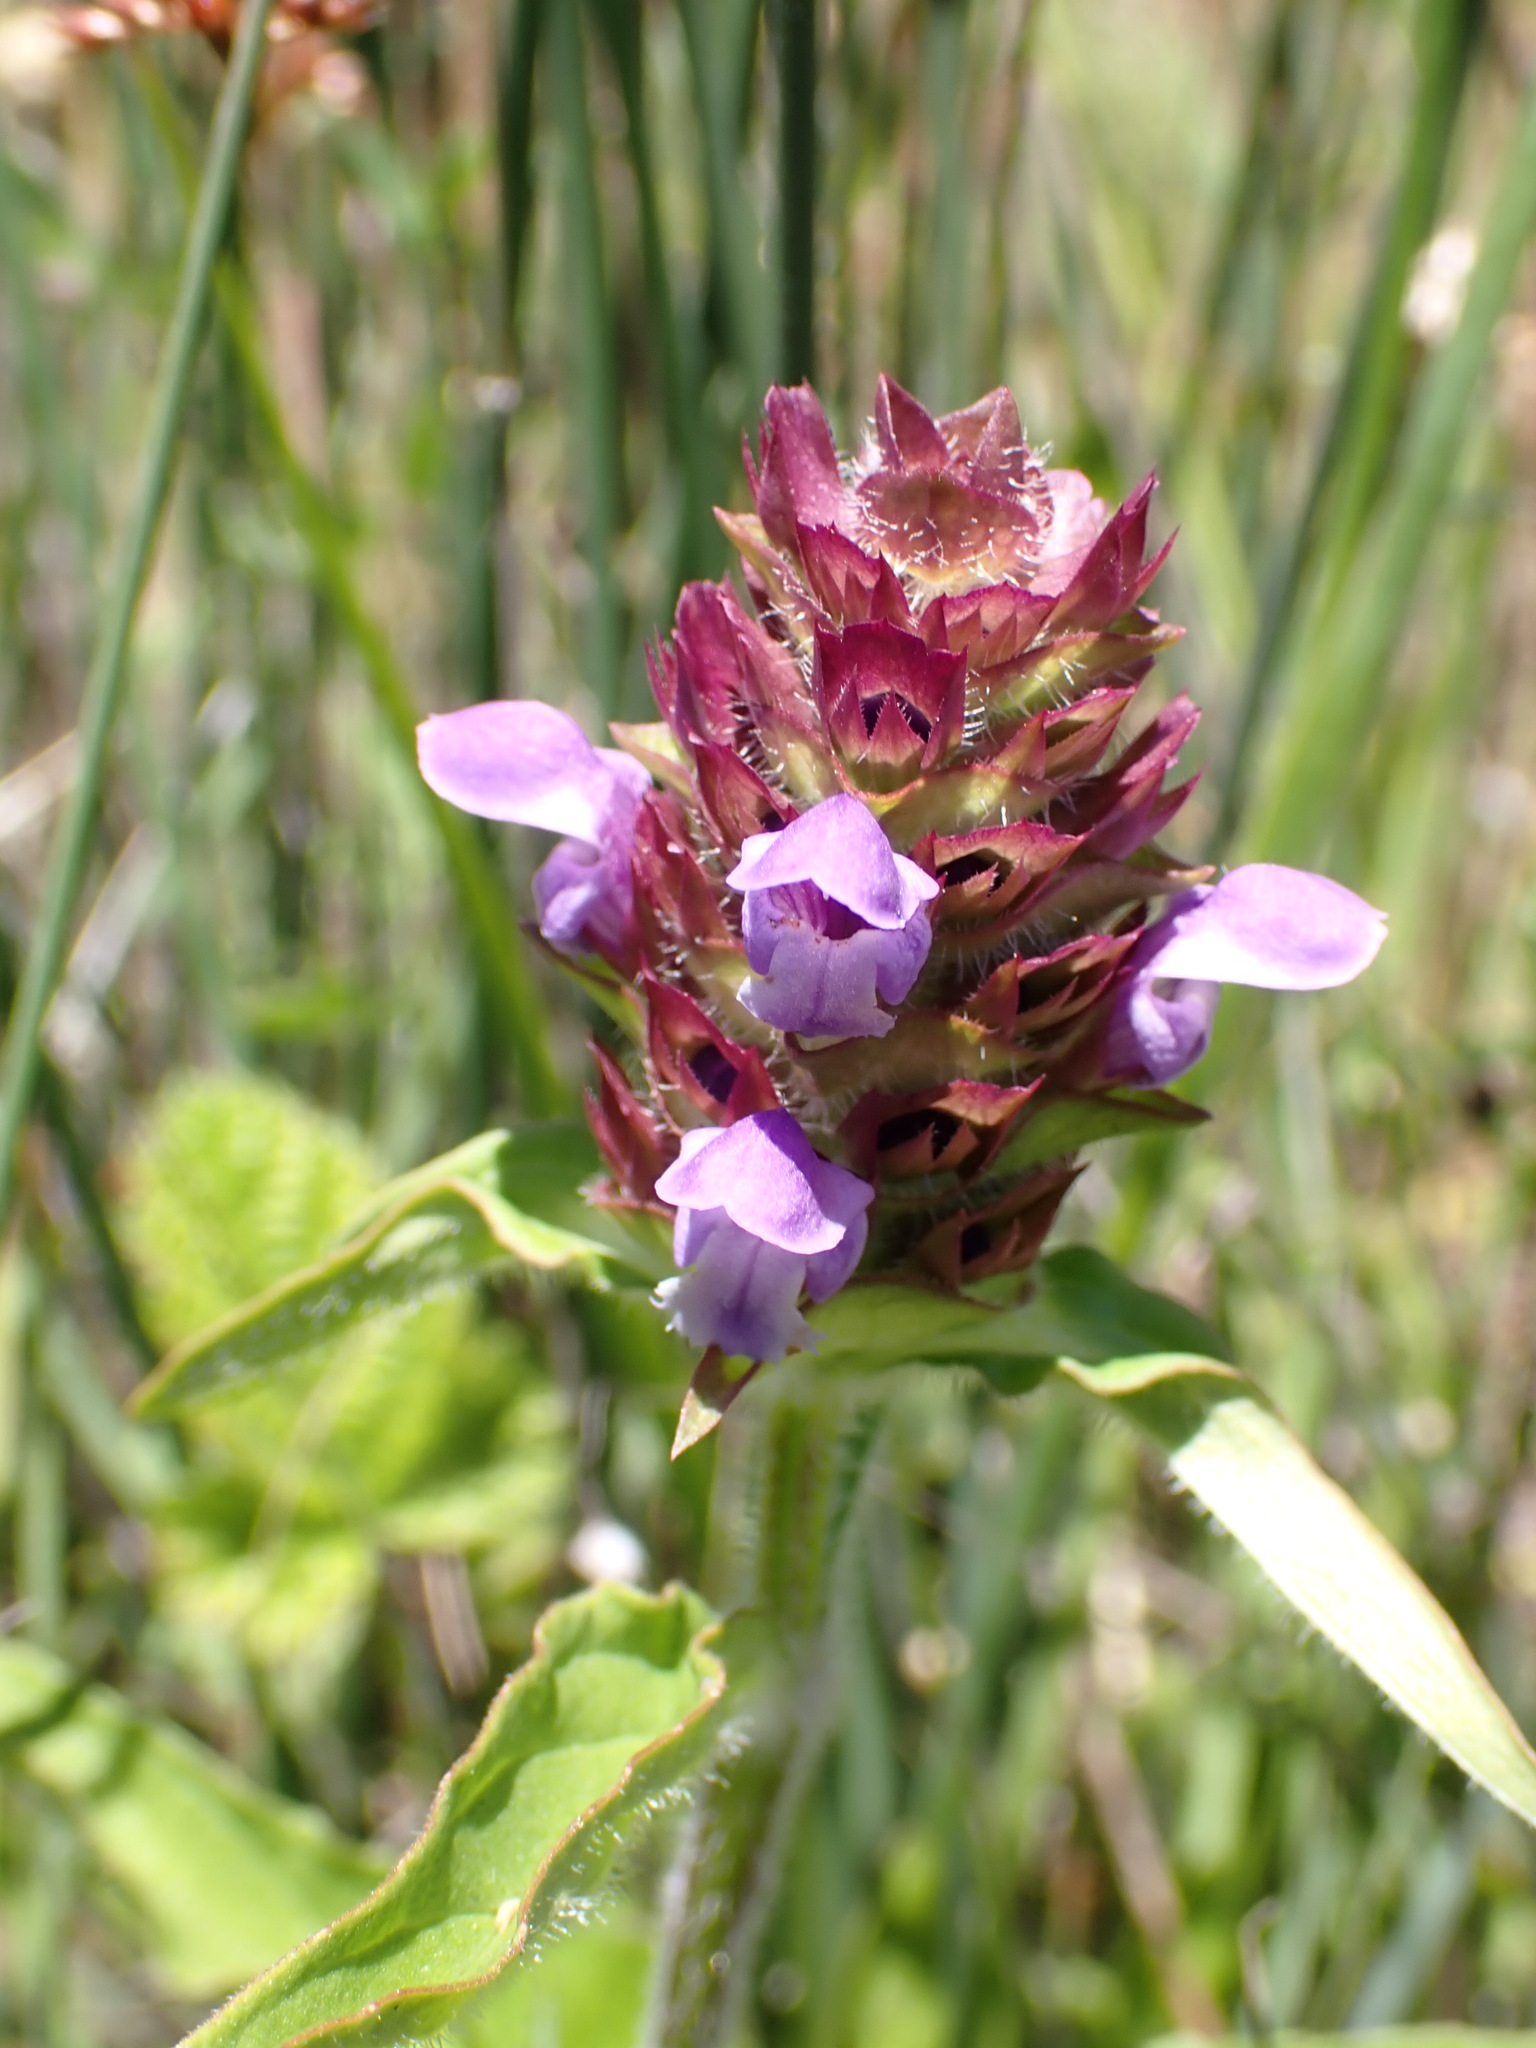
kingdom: Plantae
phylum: Tracheophyta
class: Magnoliopsida
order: Lamiales
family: Lamiaceae
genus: Prunella
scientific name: Prunella vulgaris
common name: Heal-all
